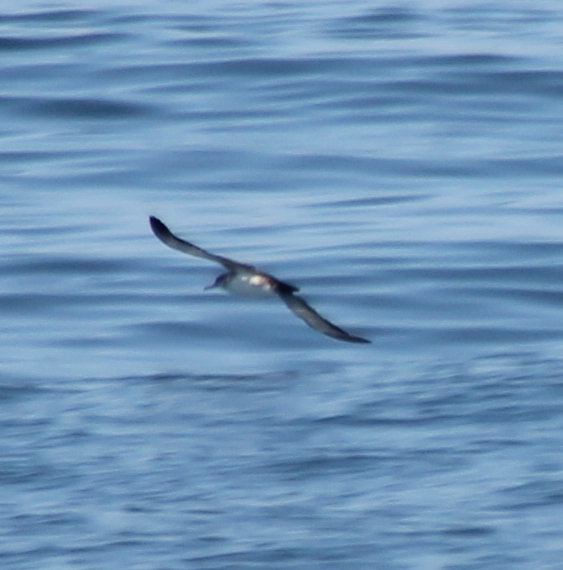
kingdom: Animalia
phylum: Chordata
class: Aves
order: Procellariiformes
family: Procellariidae
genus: Puffinus
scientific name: Puffinus opisthomelas
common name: Black-vented shearwater
